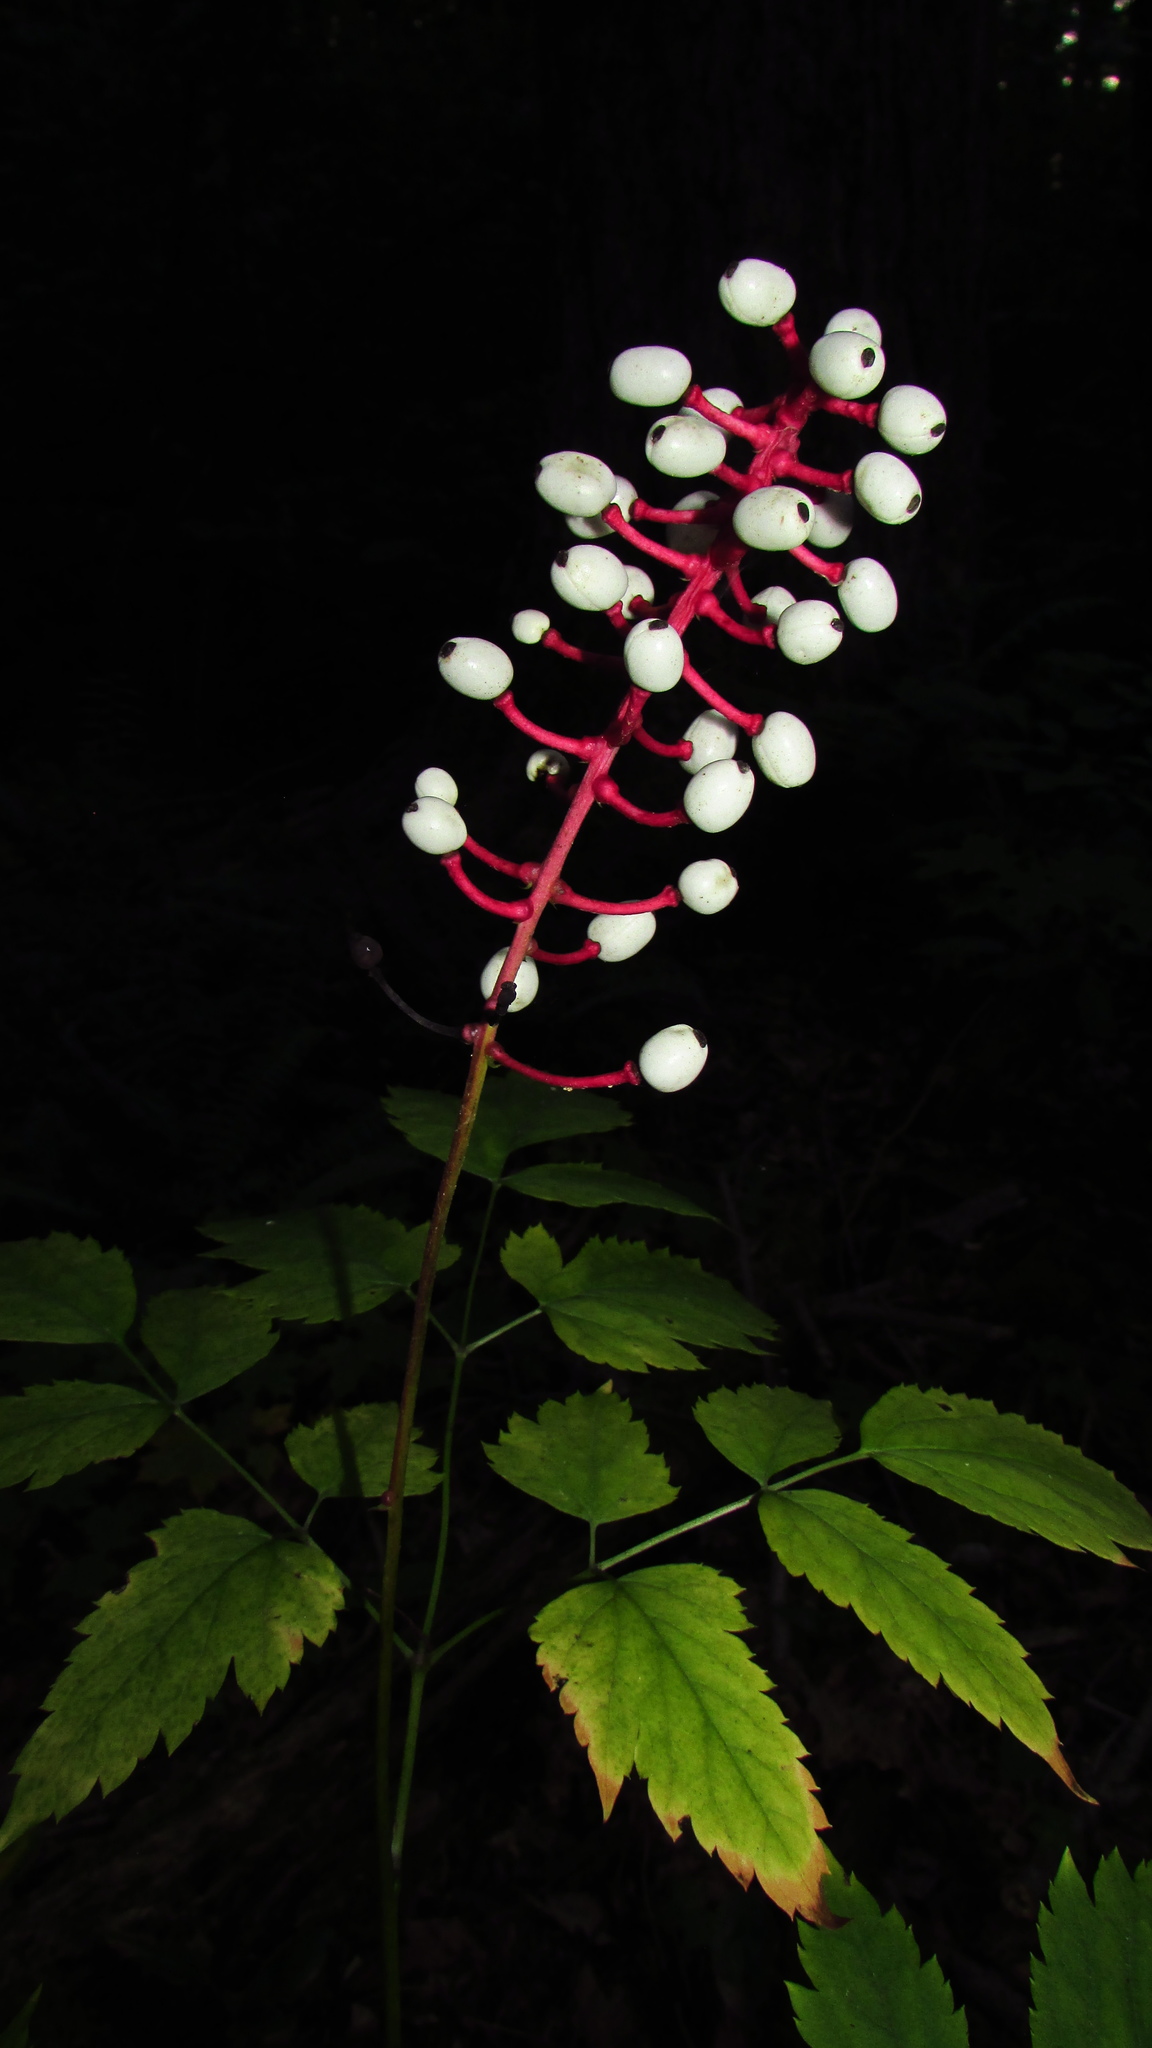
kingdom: Plantae
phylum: Tracheophyta
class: Magnoliopsida
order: Ranunculales
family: Ranunculaceae
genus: Actaea
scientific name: Actaea pachypoda
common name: Doll's-eyes
